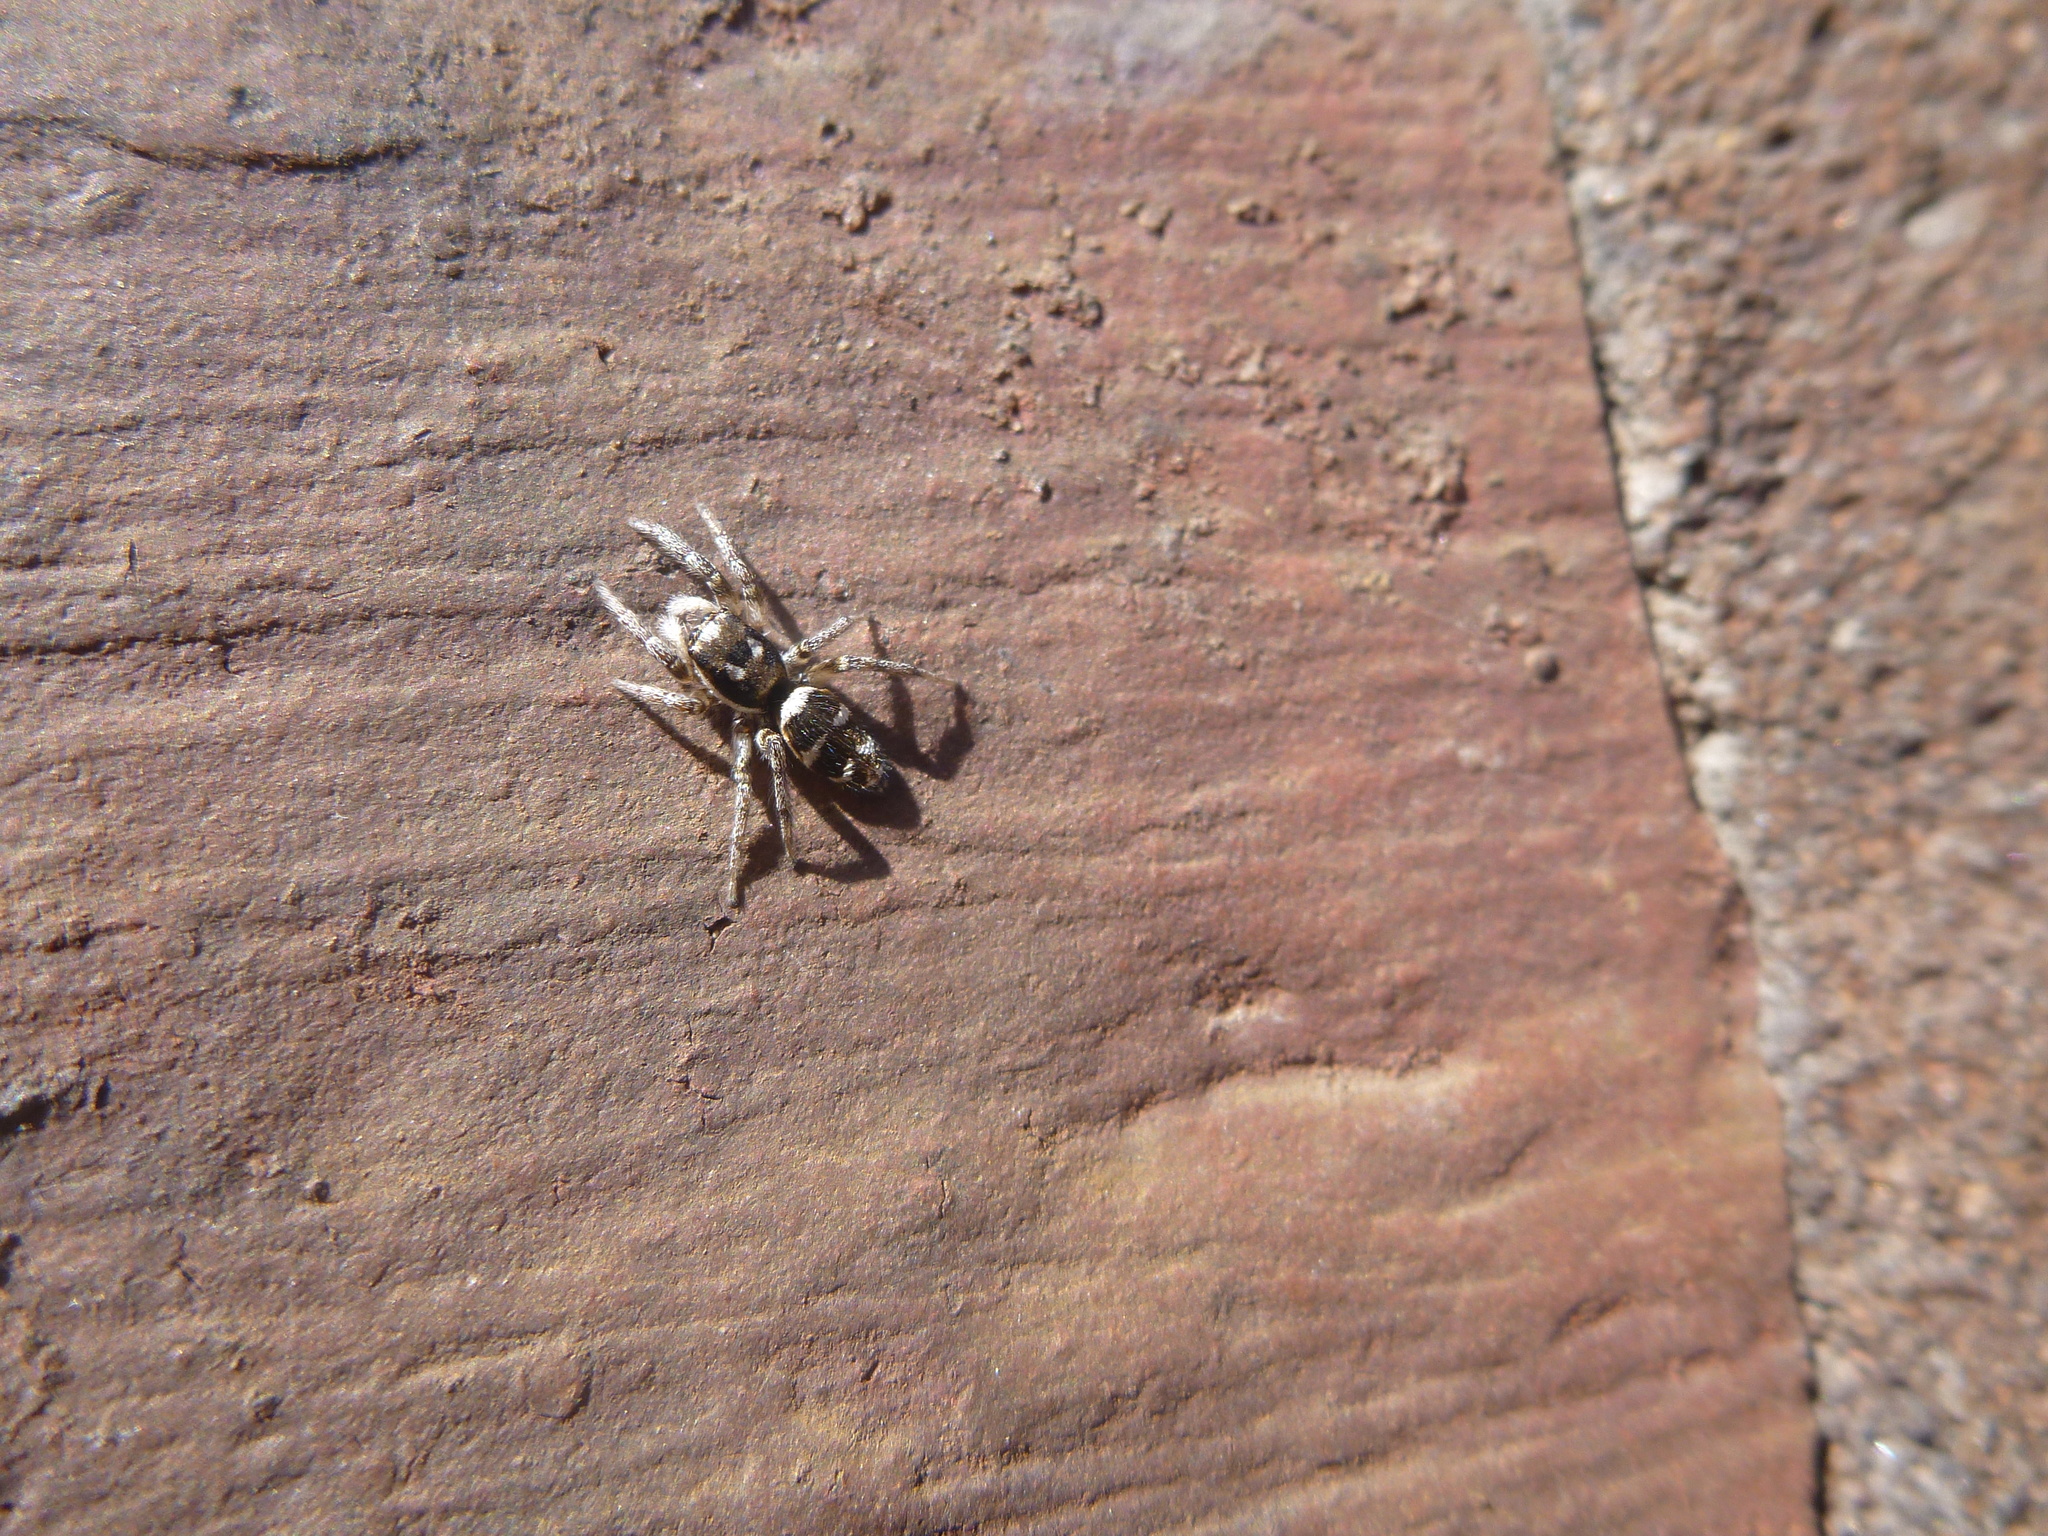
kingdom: Animalia
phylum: Arthropoda
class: Arachnida
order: Araneae
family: Salticidae
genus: Salticus
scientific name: Salticus scenicus
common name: Zebra jumper
